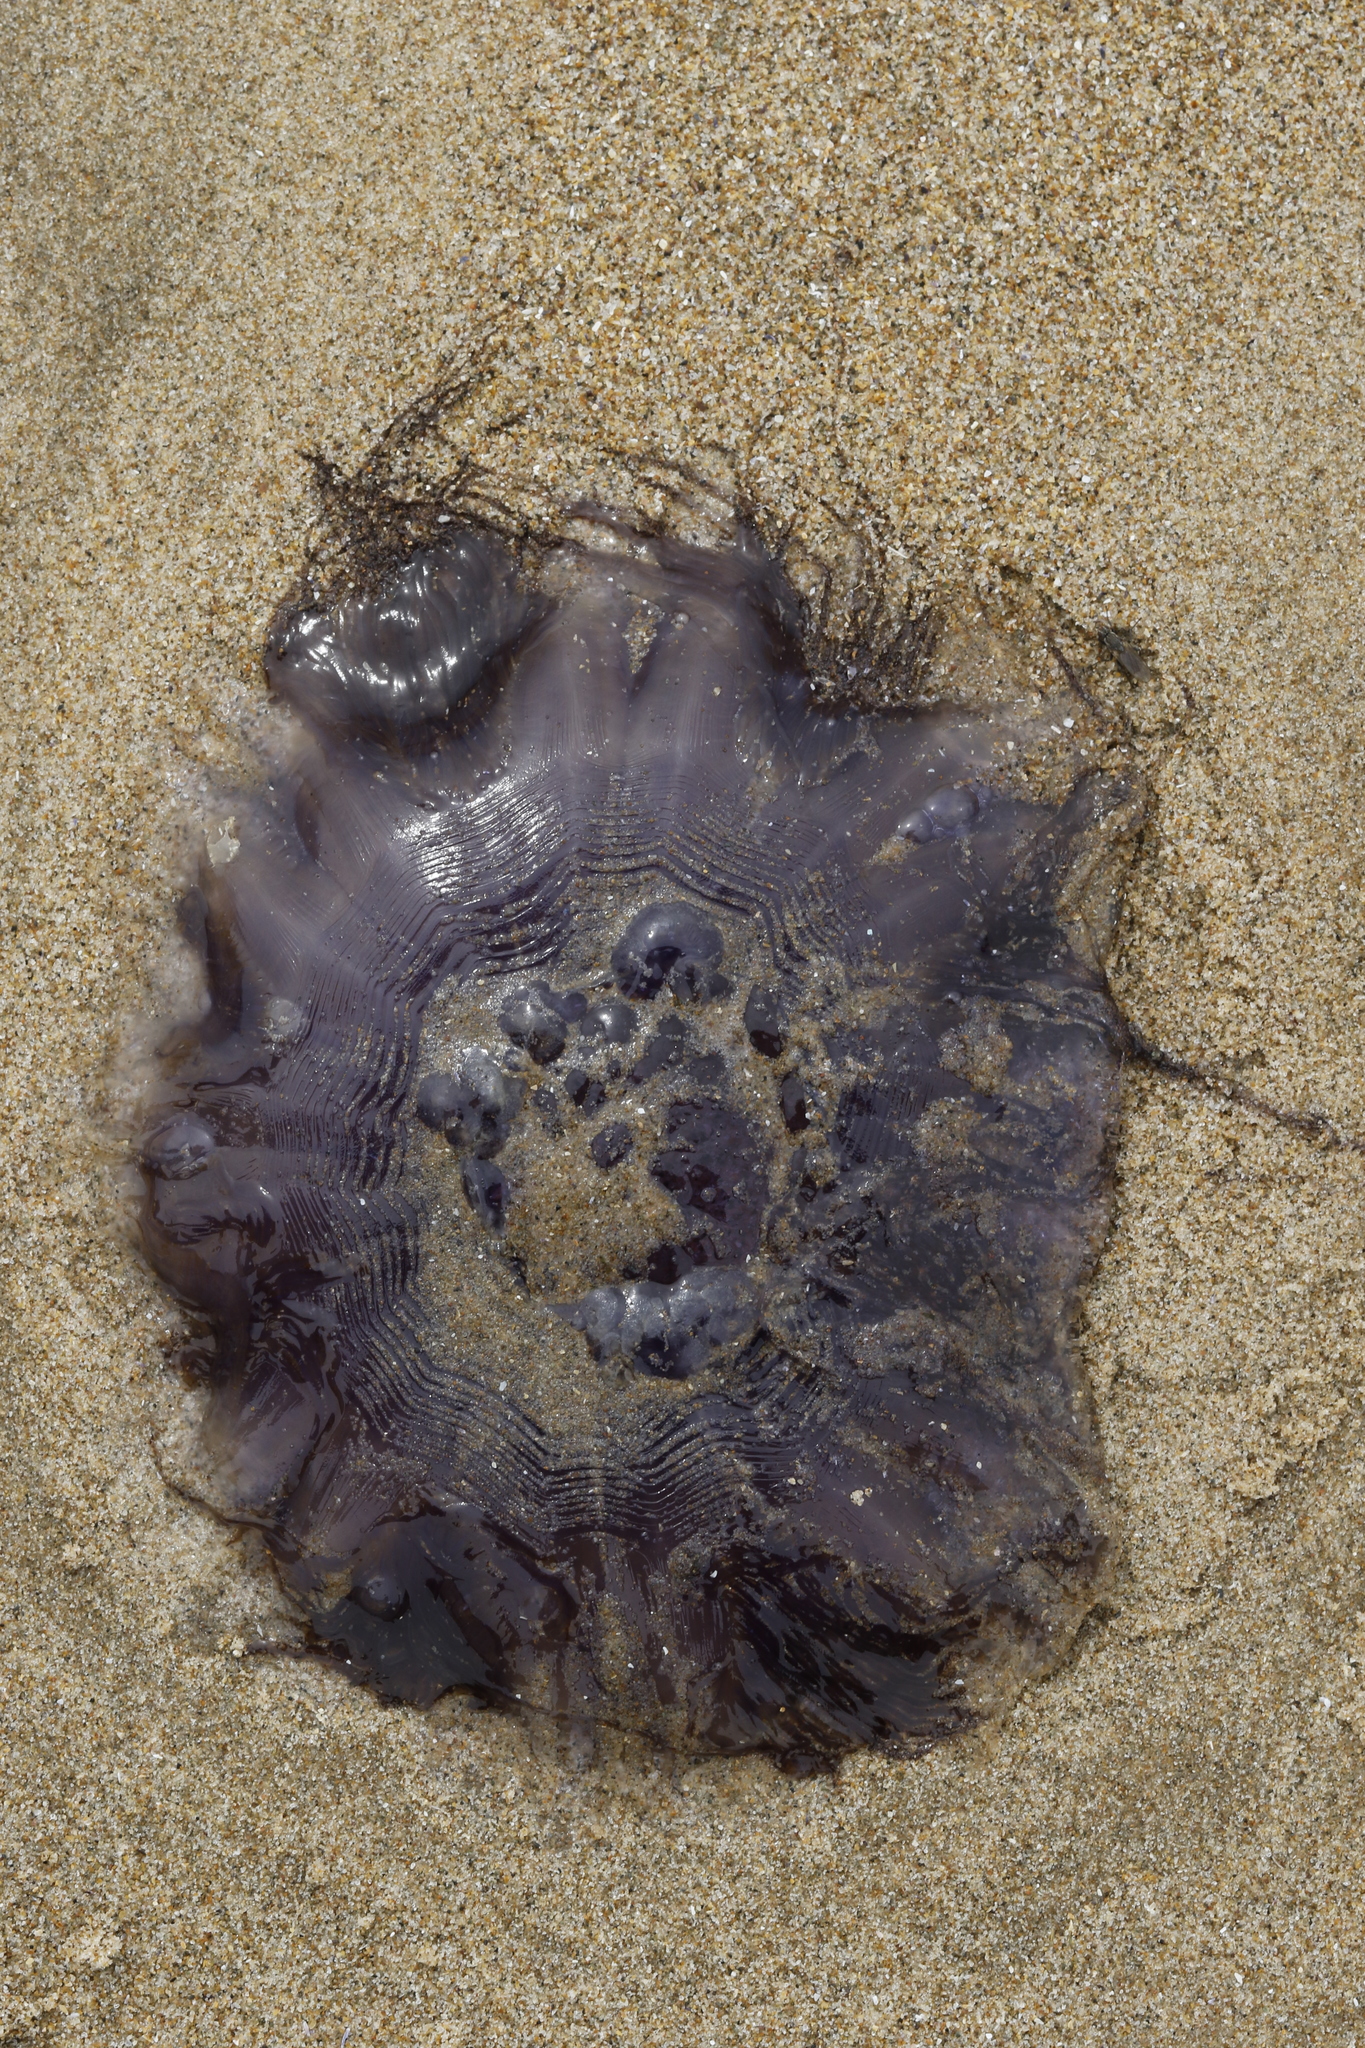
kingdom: Animalia
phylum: Cnidaria
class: Scyphozoa
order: Semaeostomeae
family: Cyaneidae
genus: Cyanea
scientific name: Cyanea lamarckii
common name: Blue jellyfish
